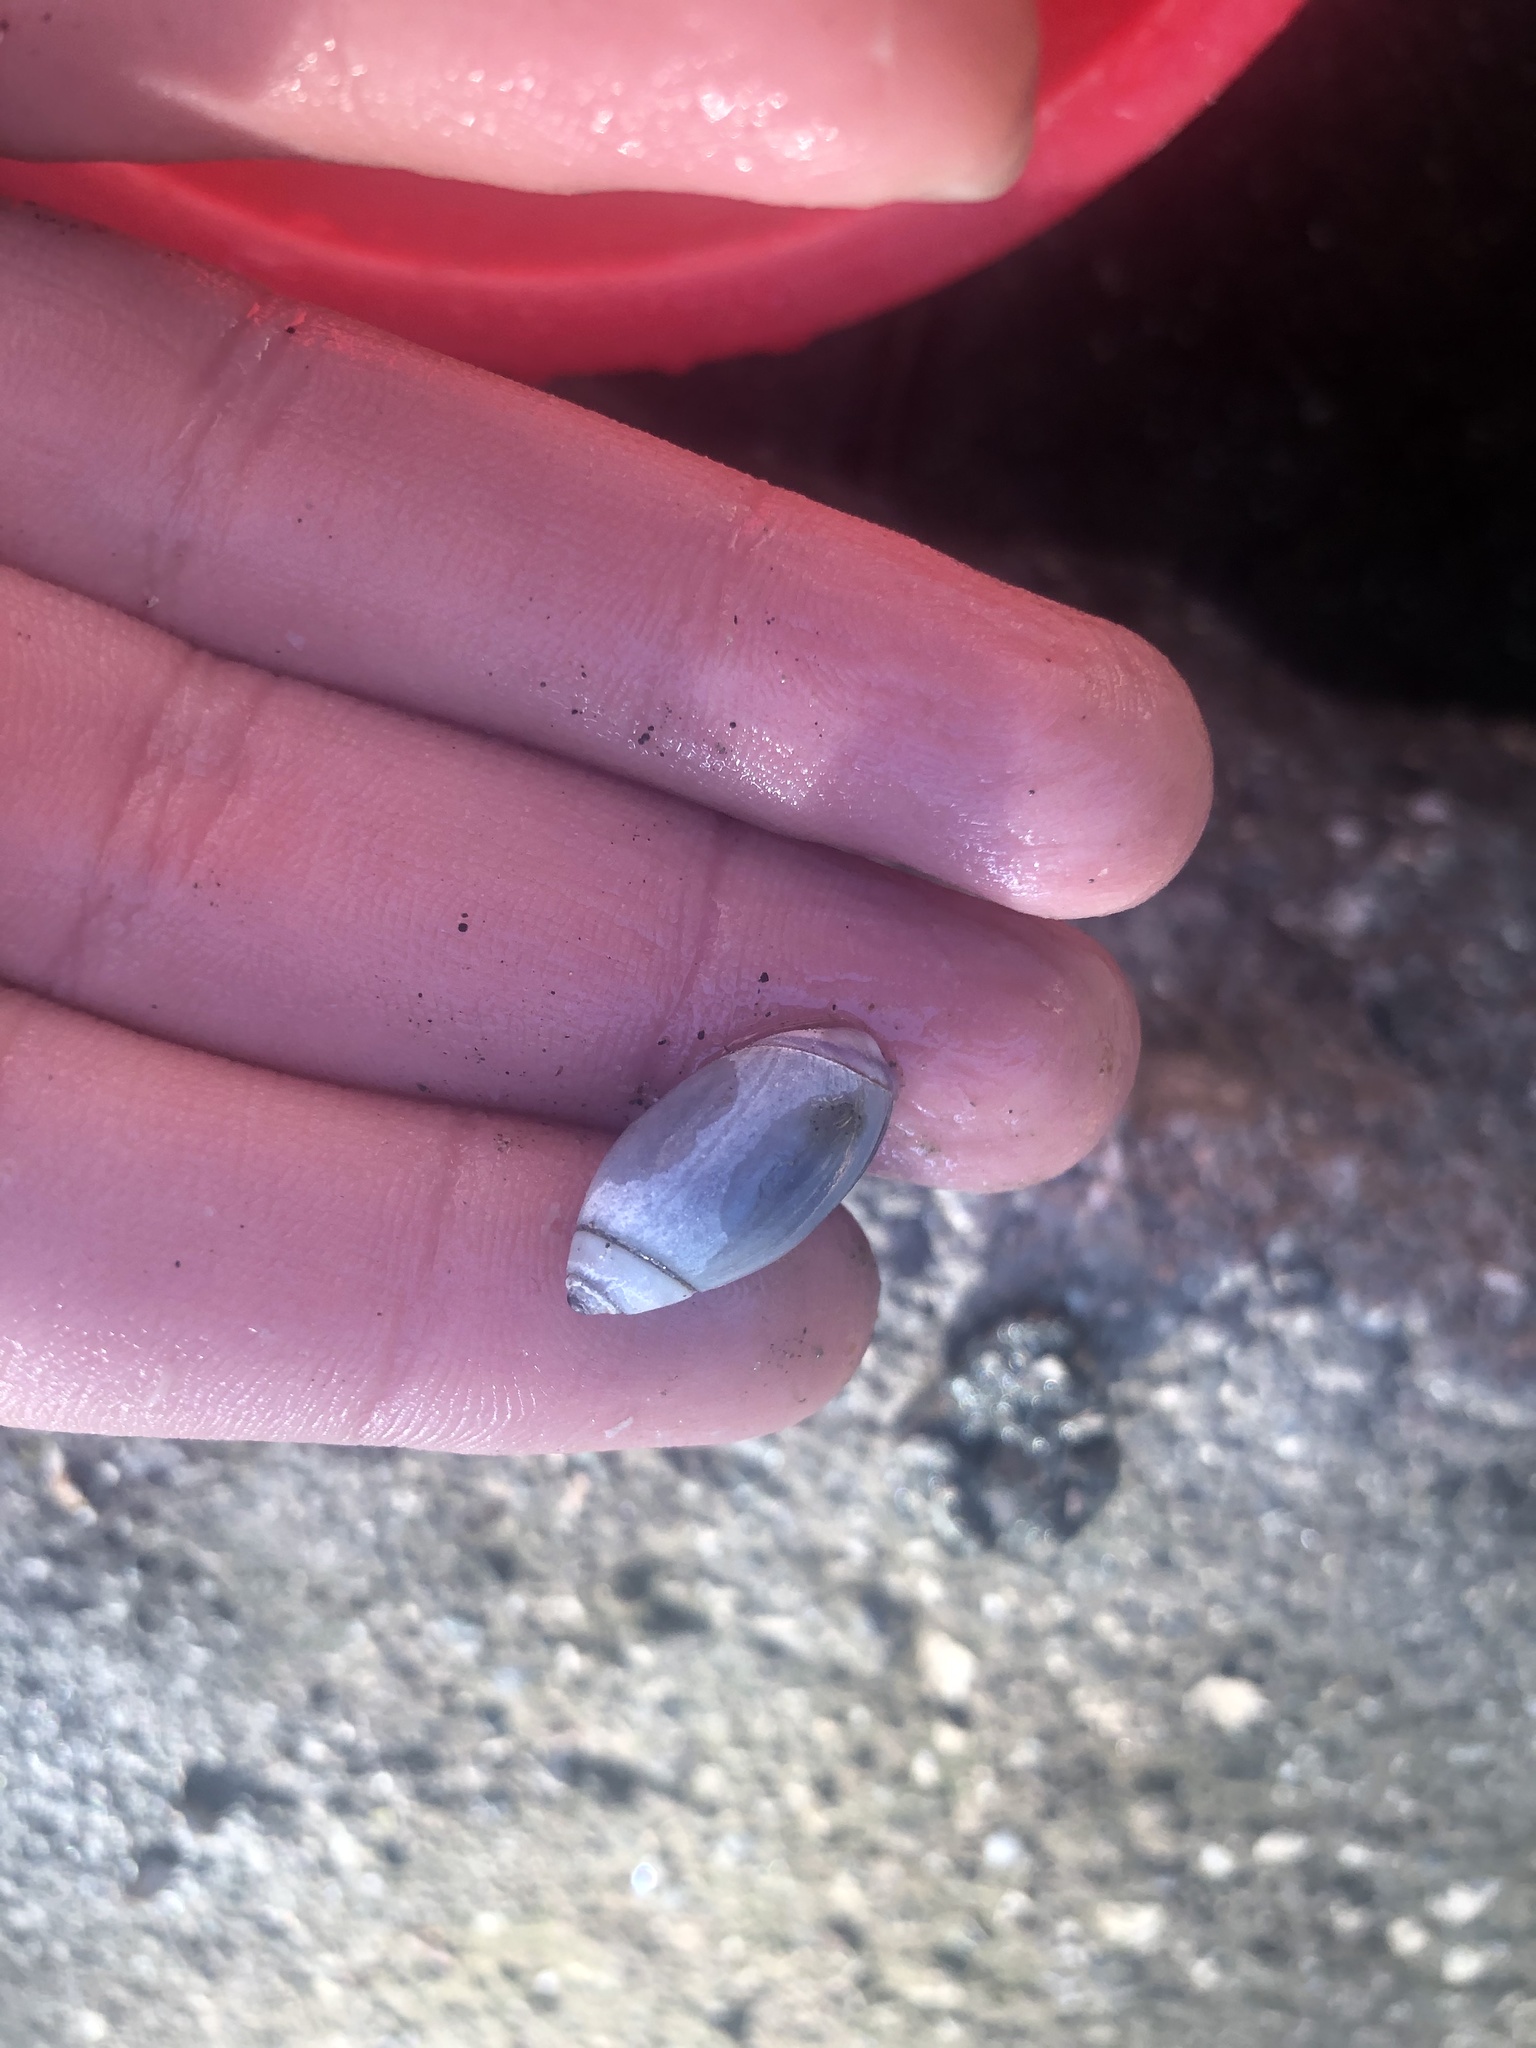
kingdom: Animalia
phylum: Mollusca
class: Gastropoda
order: Neogastropoda
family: Olividae
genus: Callianax
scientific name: Callianax biplicata
